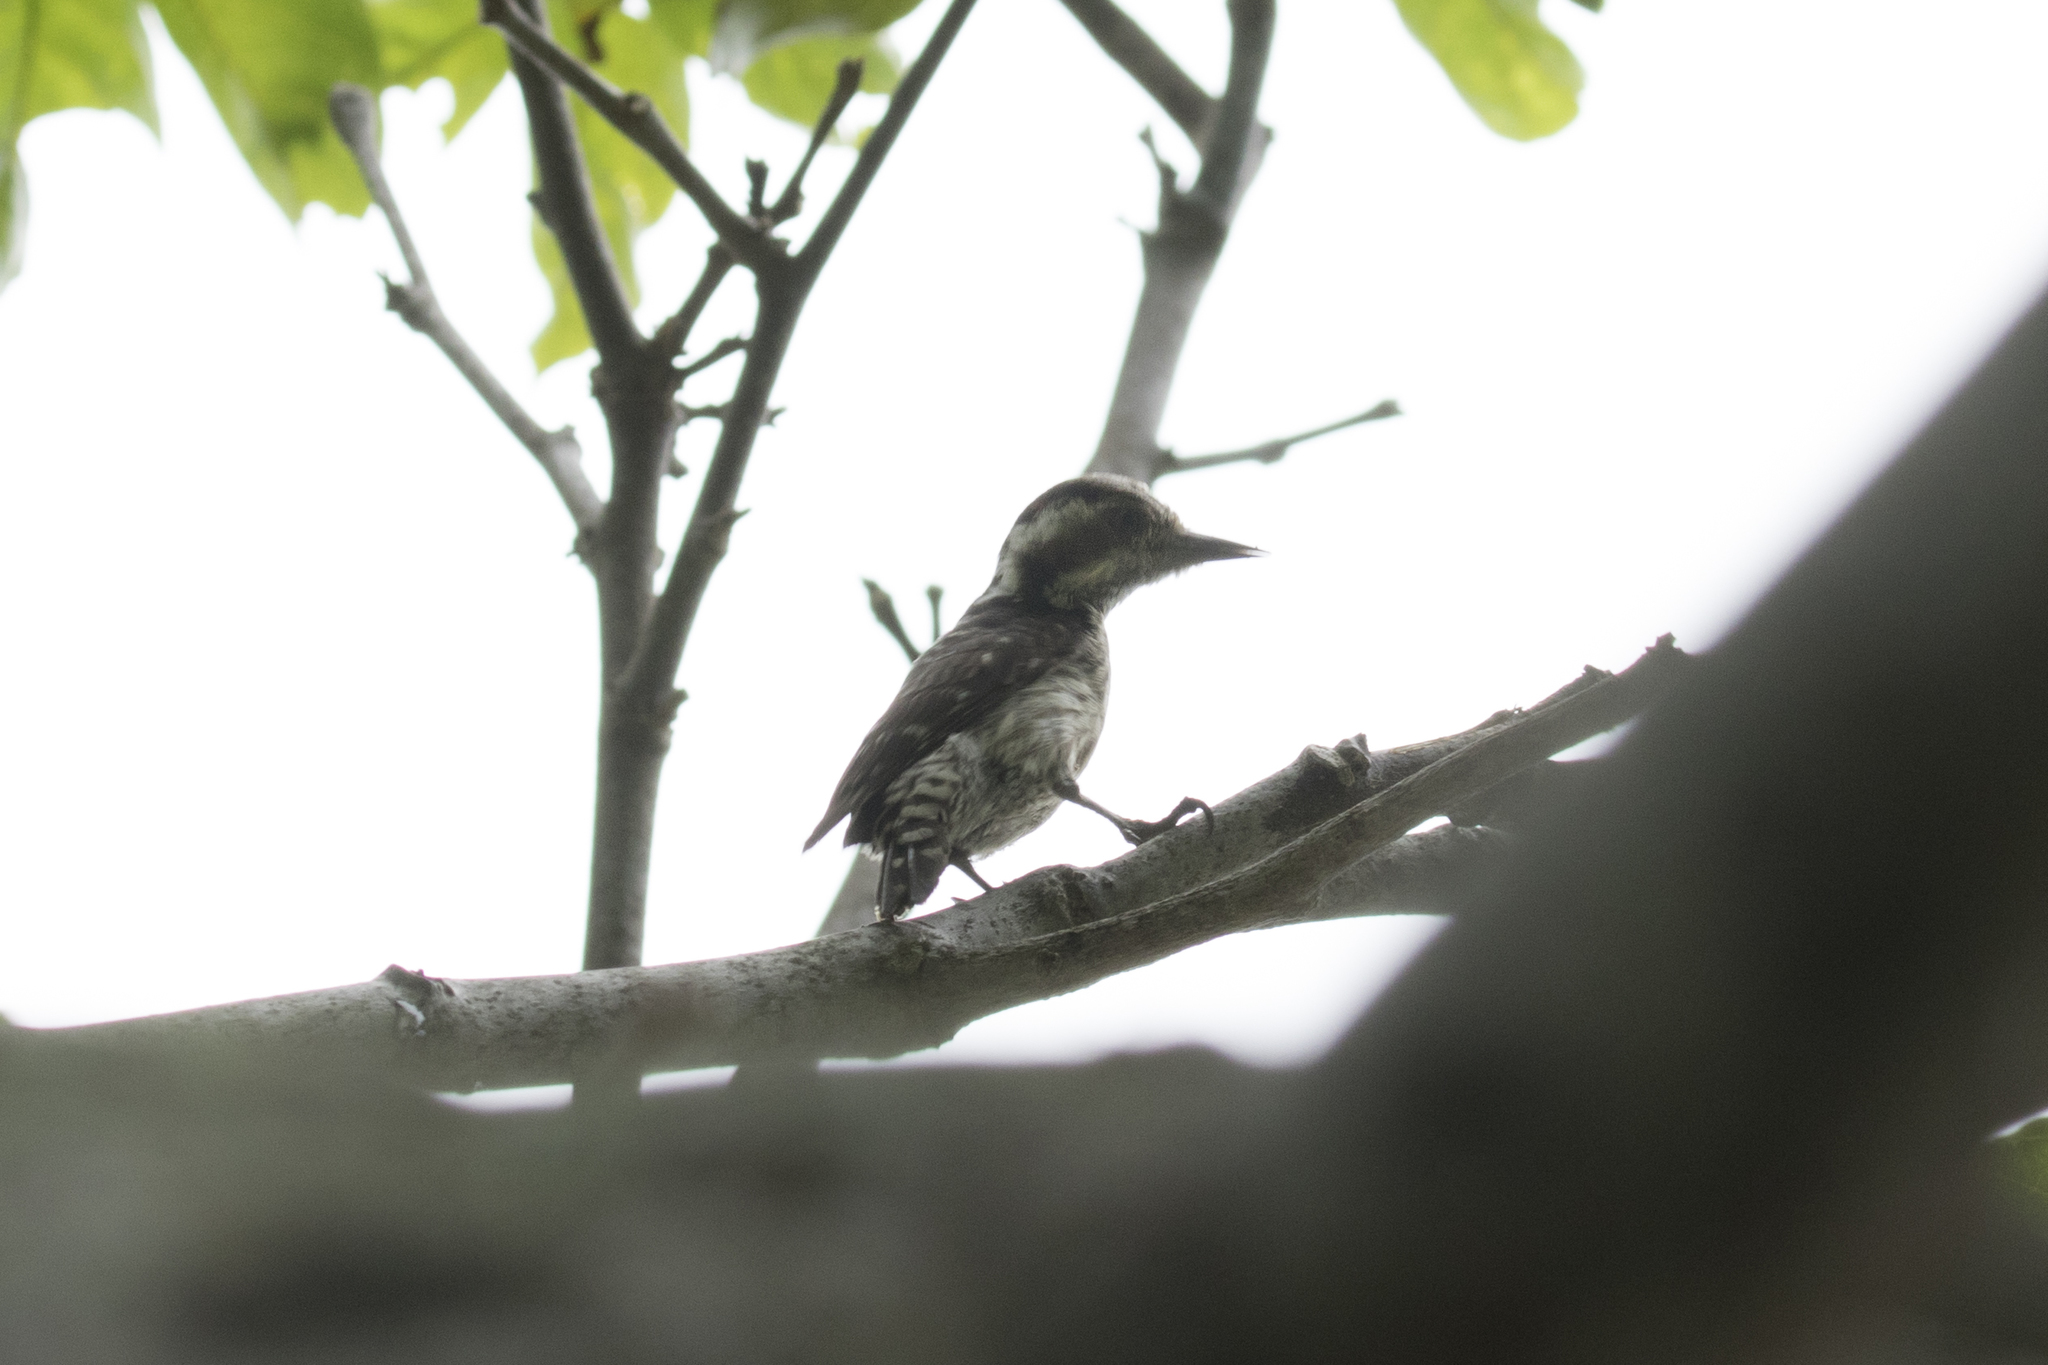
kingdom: Animalia
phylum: Chordata
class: Aves
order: Piciformes
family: Picidae
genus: Yungipicus
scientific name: Yungipicus moluccensis
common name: Sunda pygmy woodpecker
